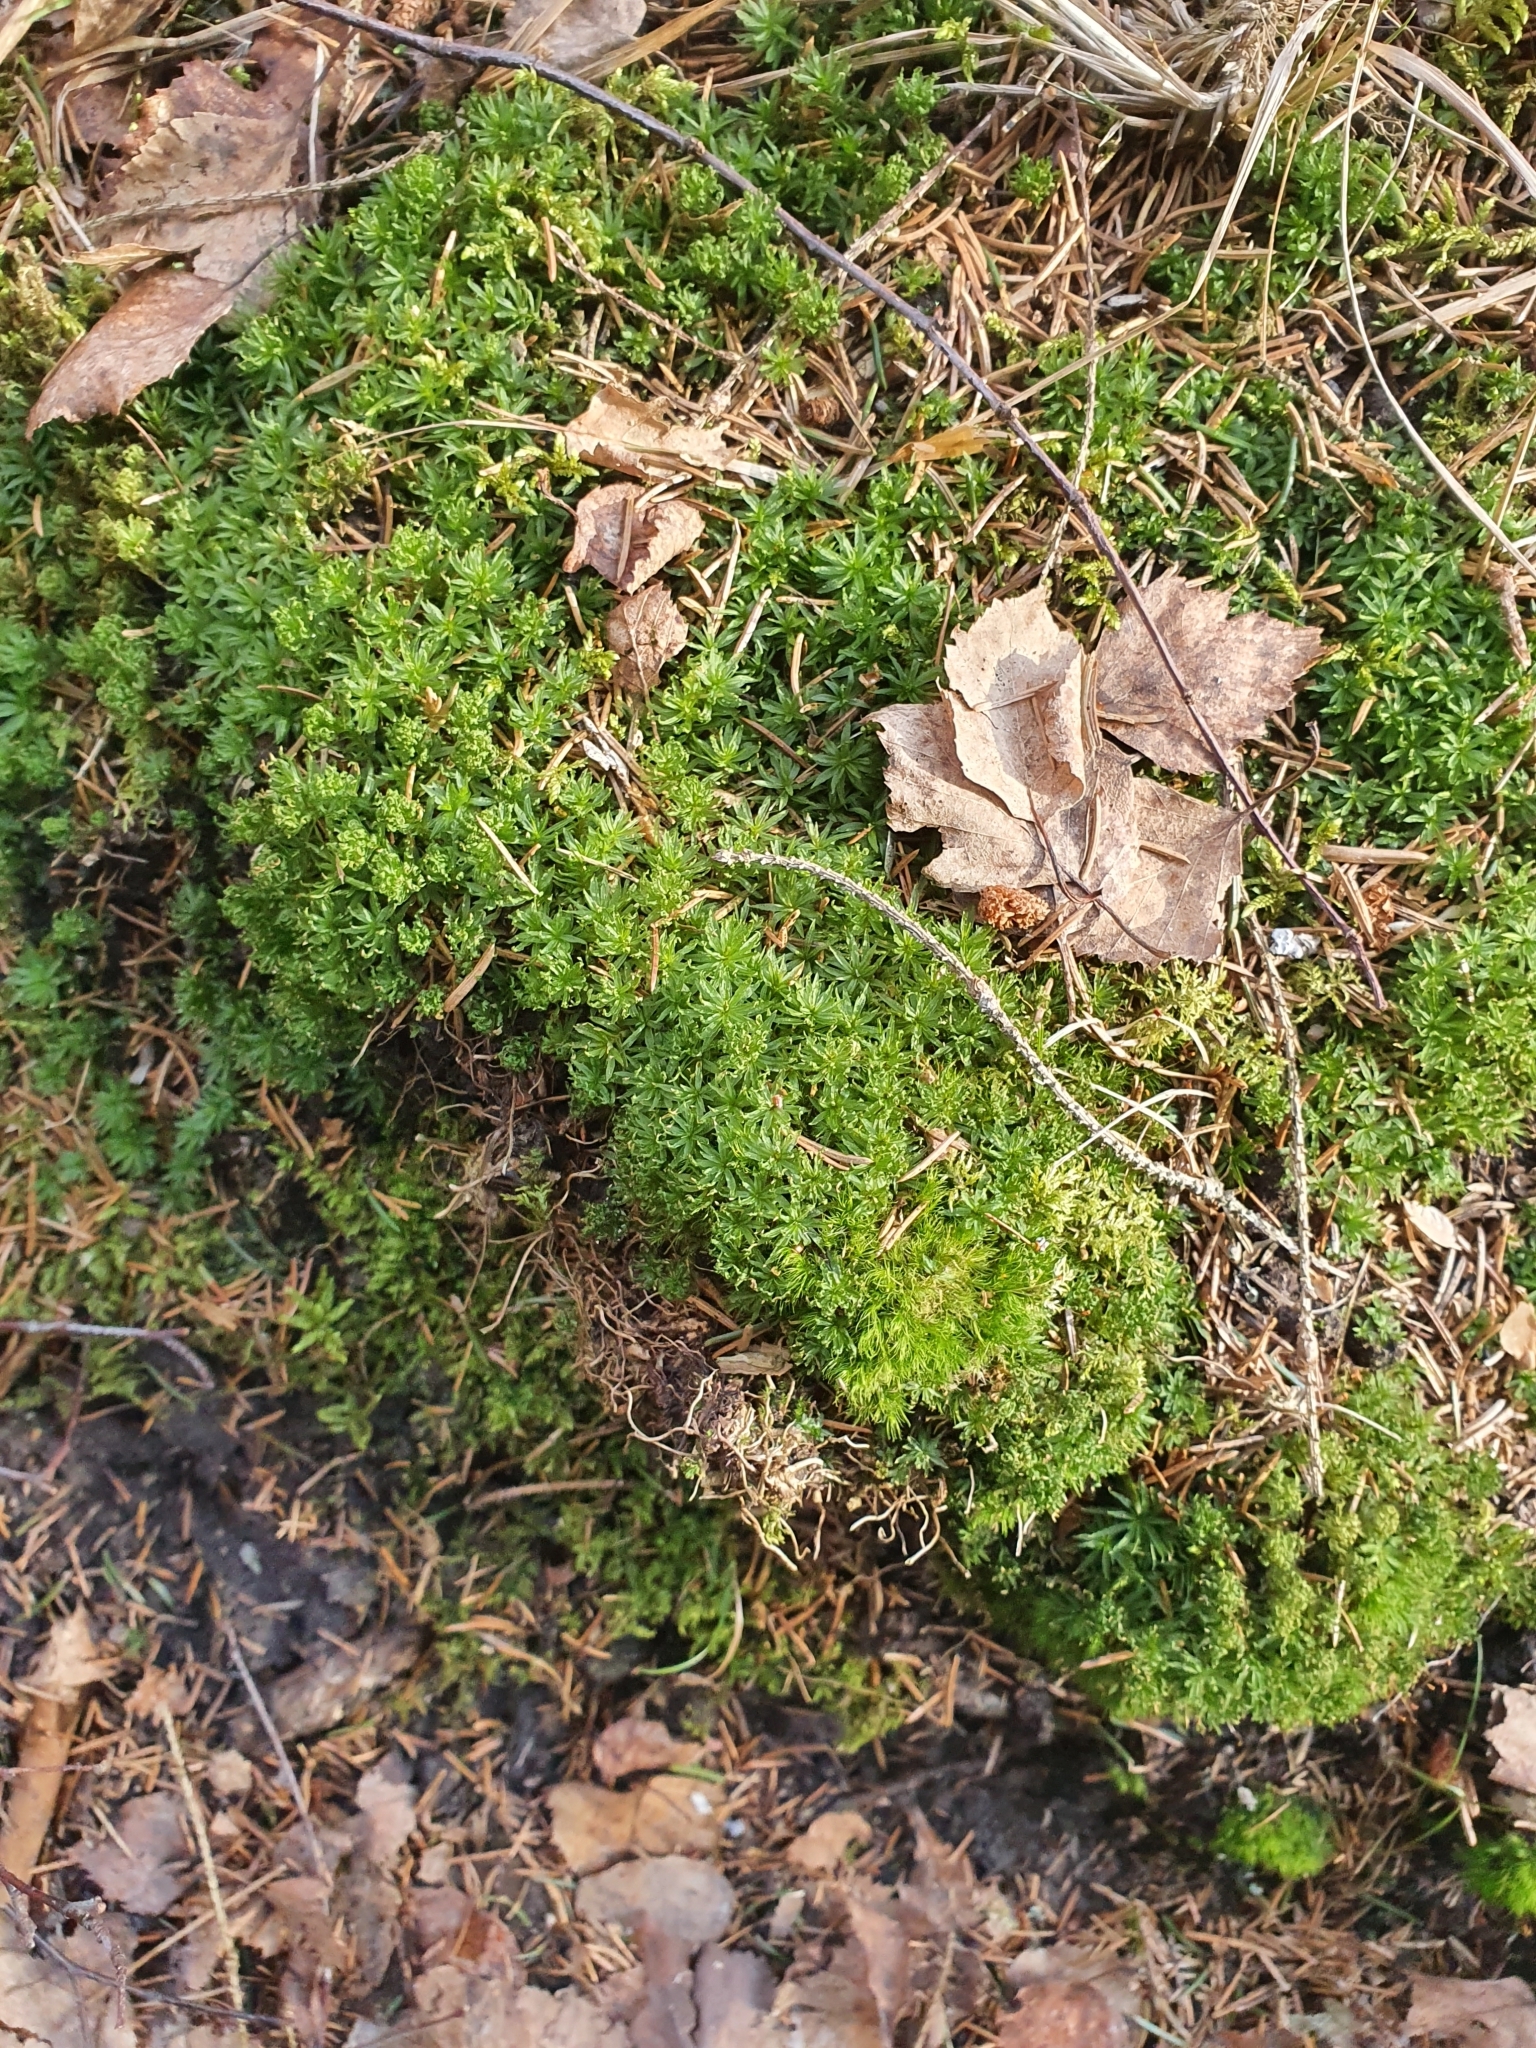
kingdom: Plantae
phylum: Bryophyta
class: Polytrichopsida
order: Polytrichales
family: Polytrichaceae
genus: Atrichum
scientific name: Atrichum undulatum
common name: Common smoothcap
